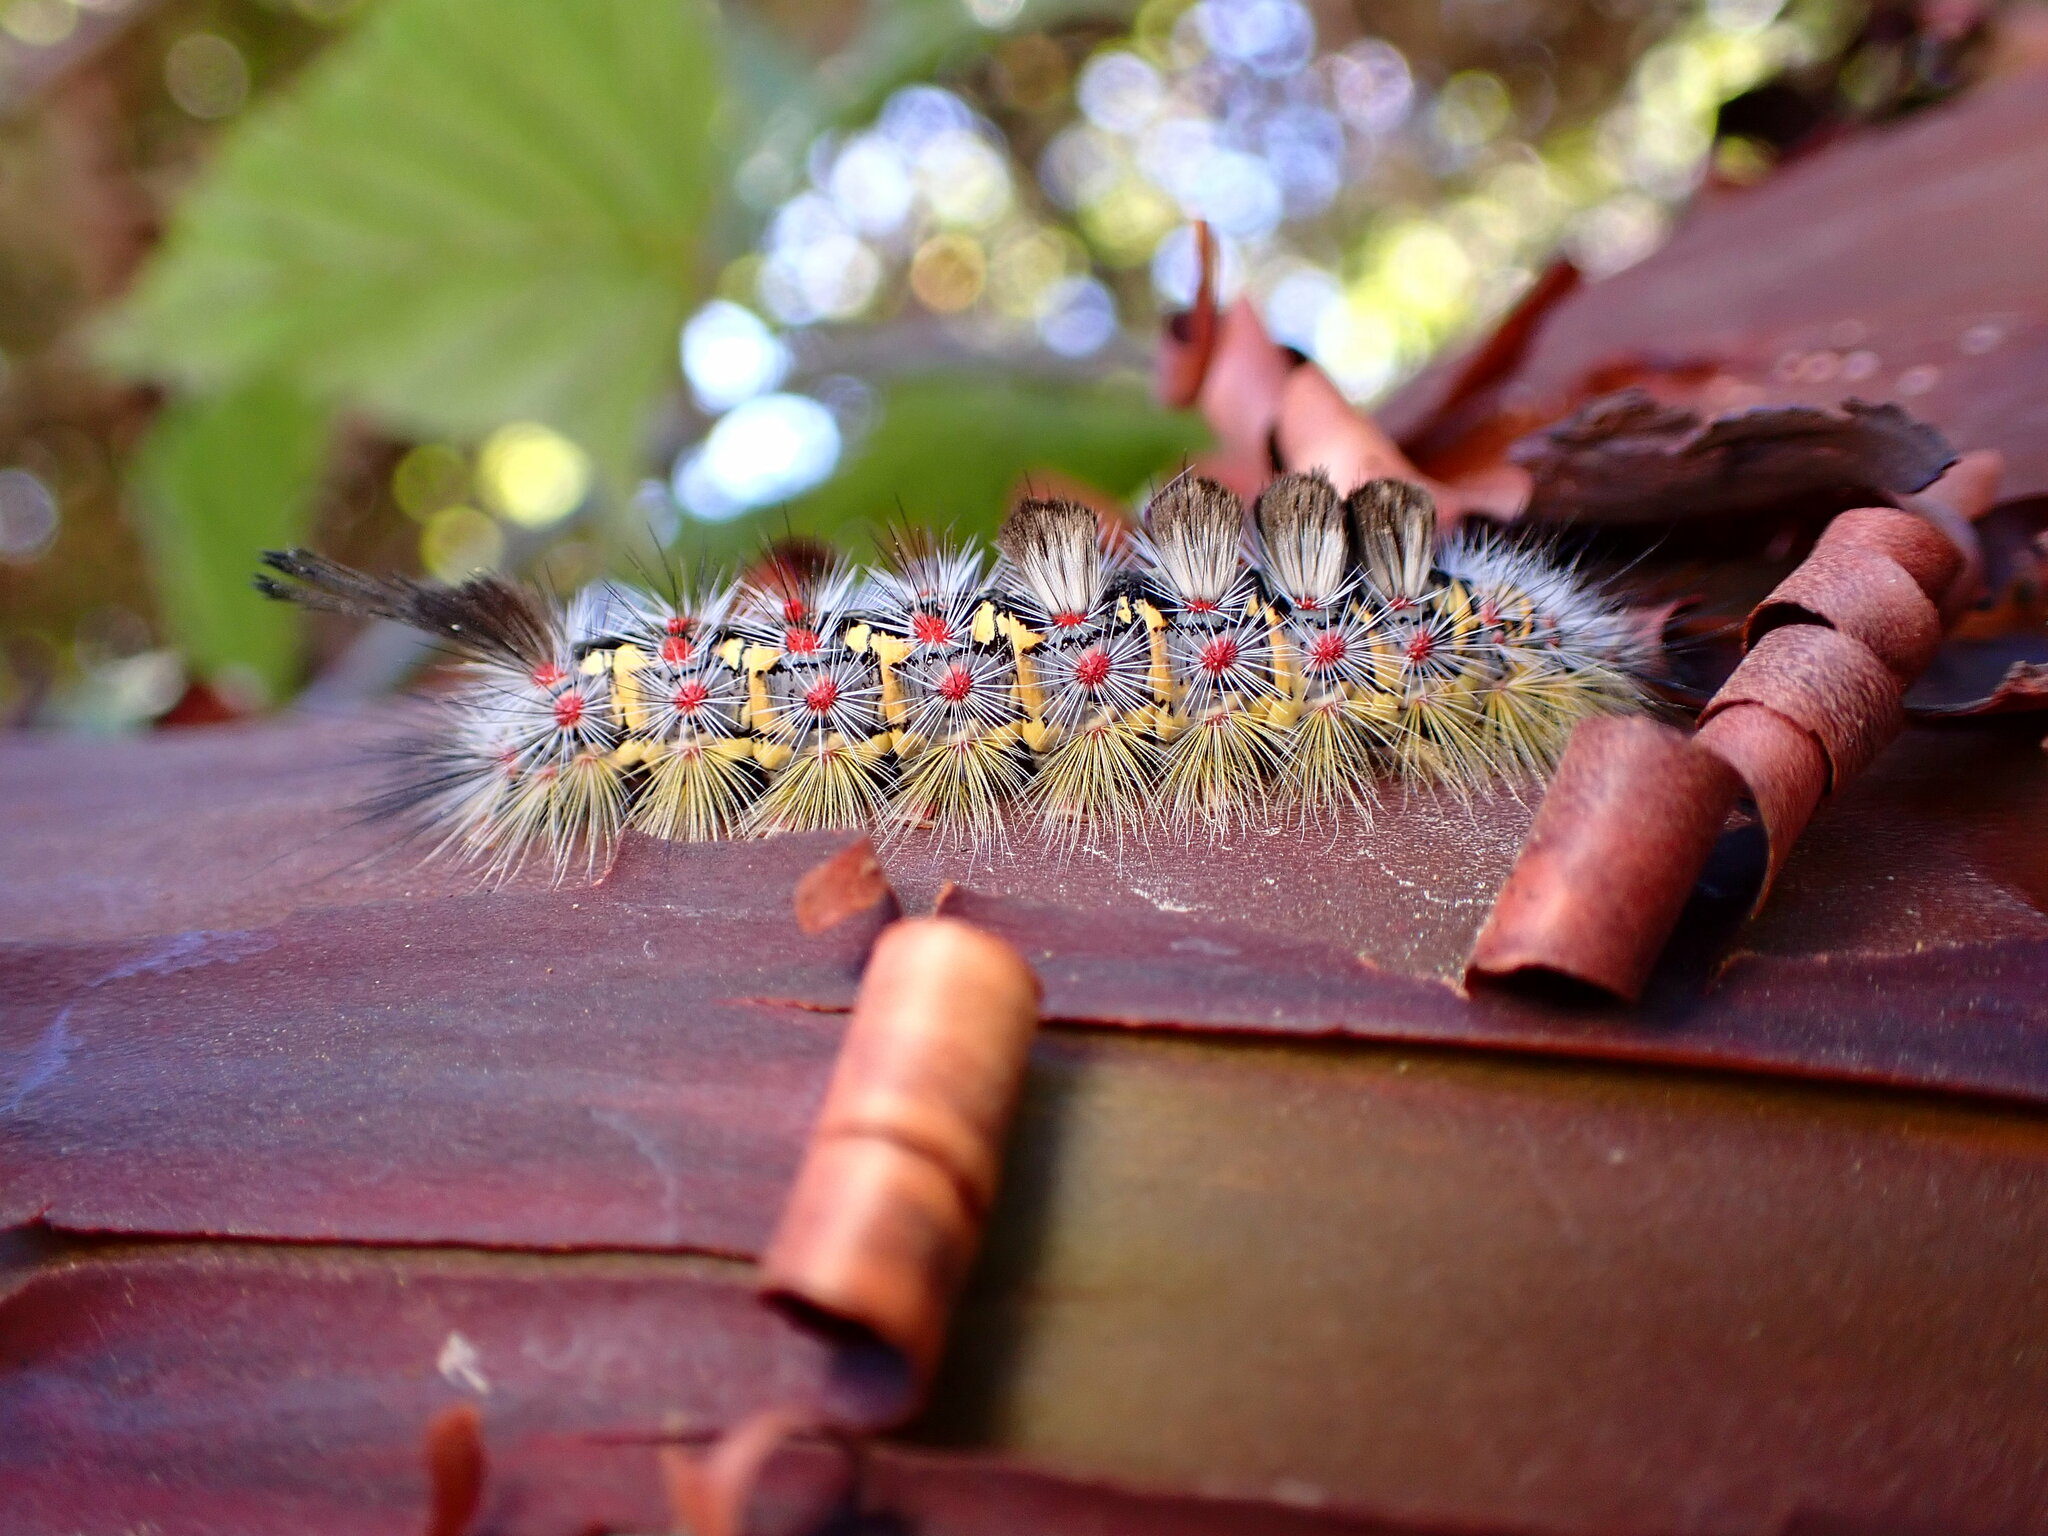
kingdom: Animalia
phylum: Arthropoda
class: Insecta
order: Lepidoptera
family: Erebidae
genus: Orgyia
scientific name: Orgyia vetusta
